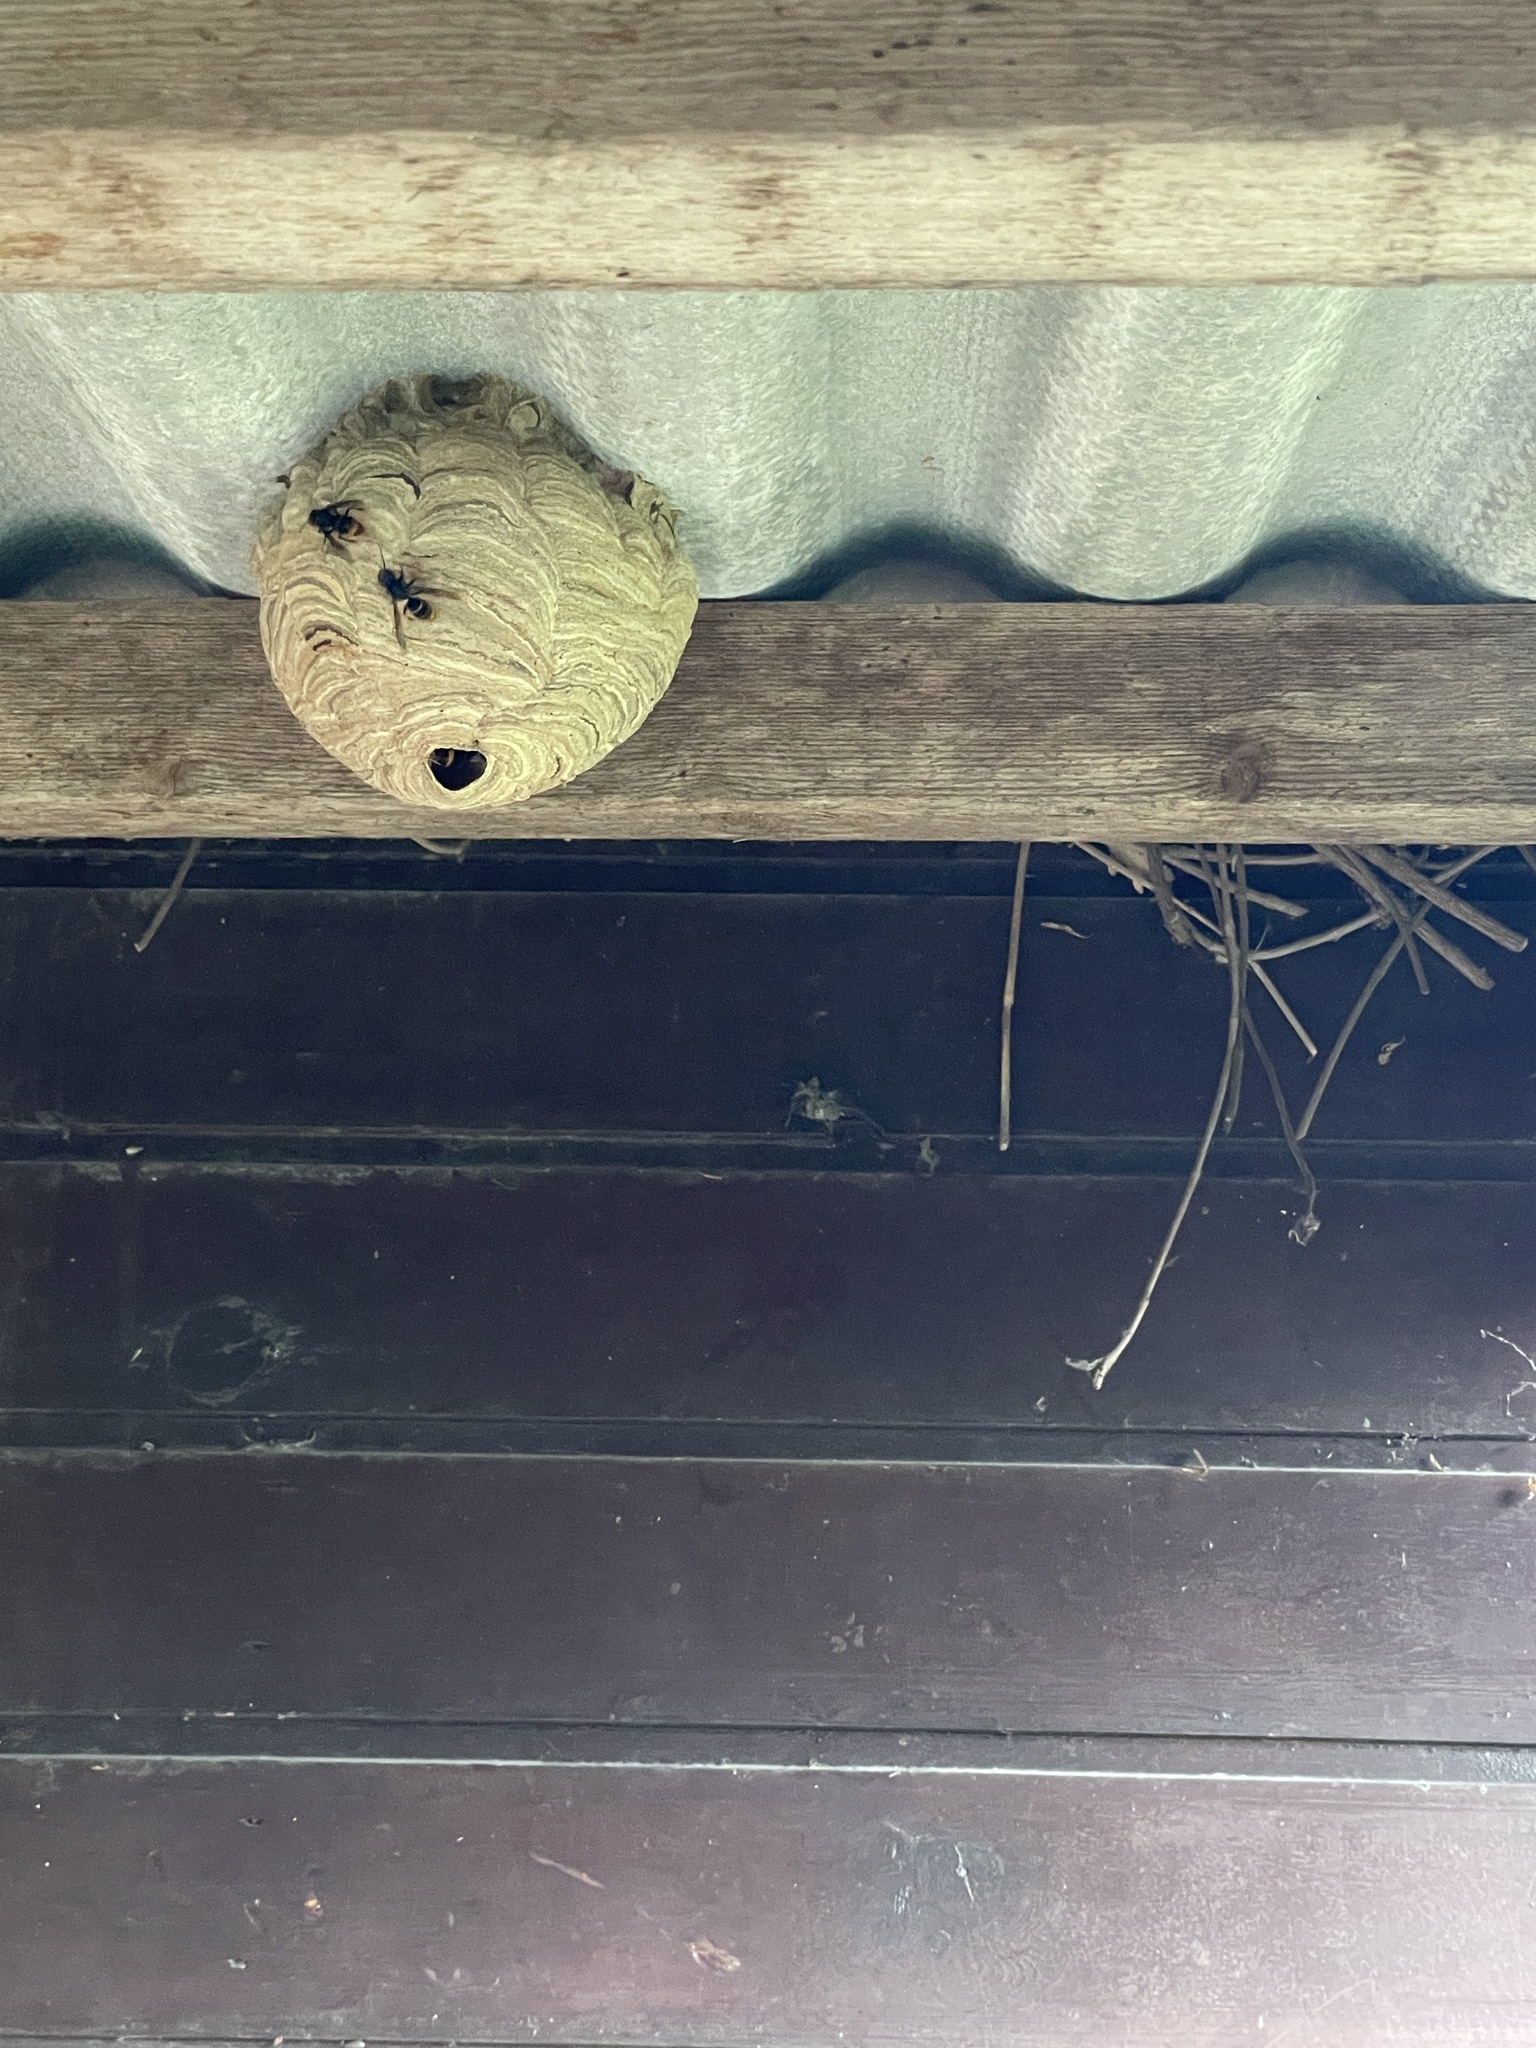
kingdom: Animalia
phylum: Arthropoda
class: Insecta
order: Hymenoptera
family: Vespidae
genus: Vespa
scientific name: Vespa velutina
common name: Asian hornet
